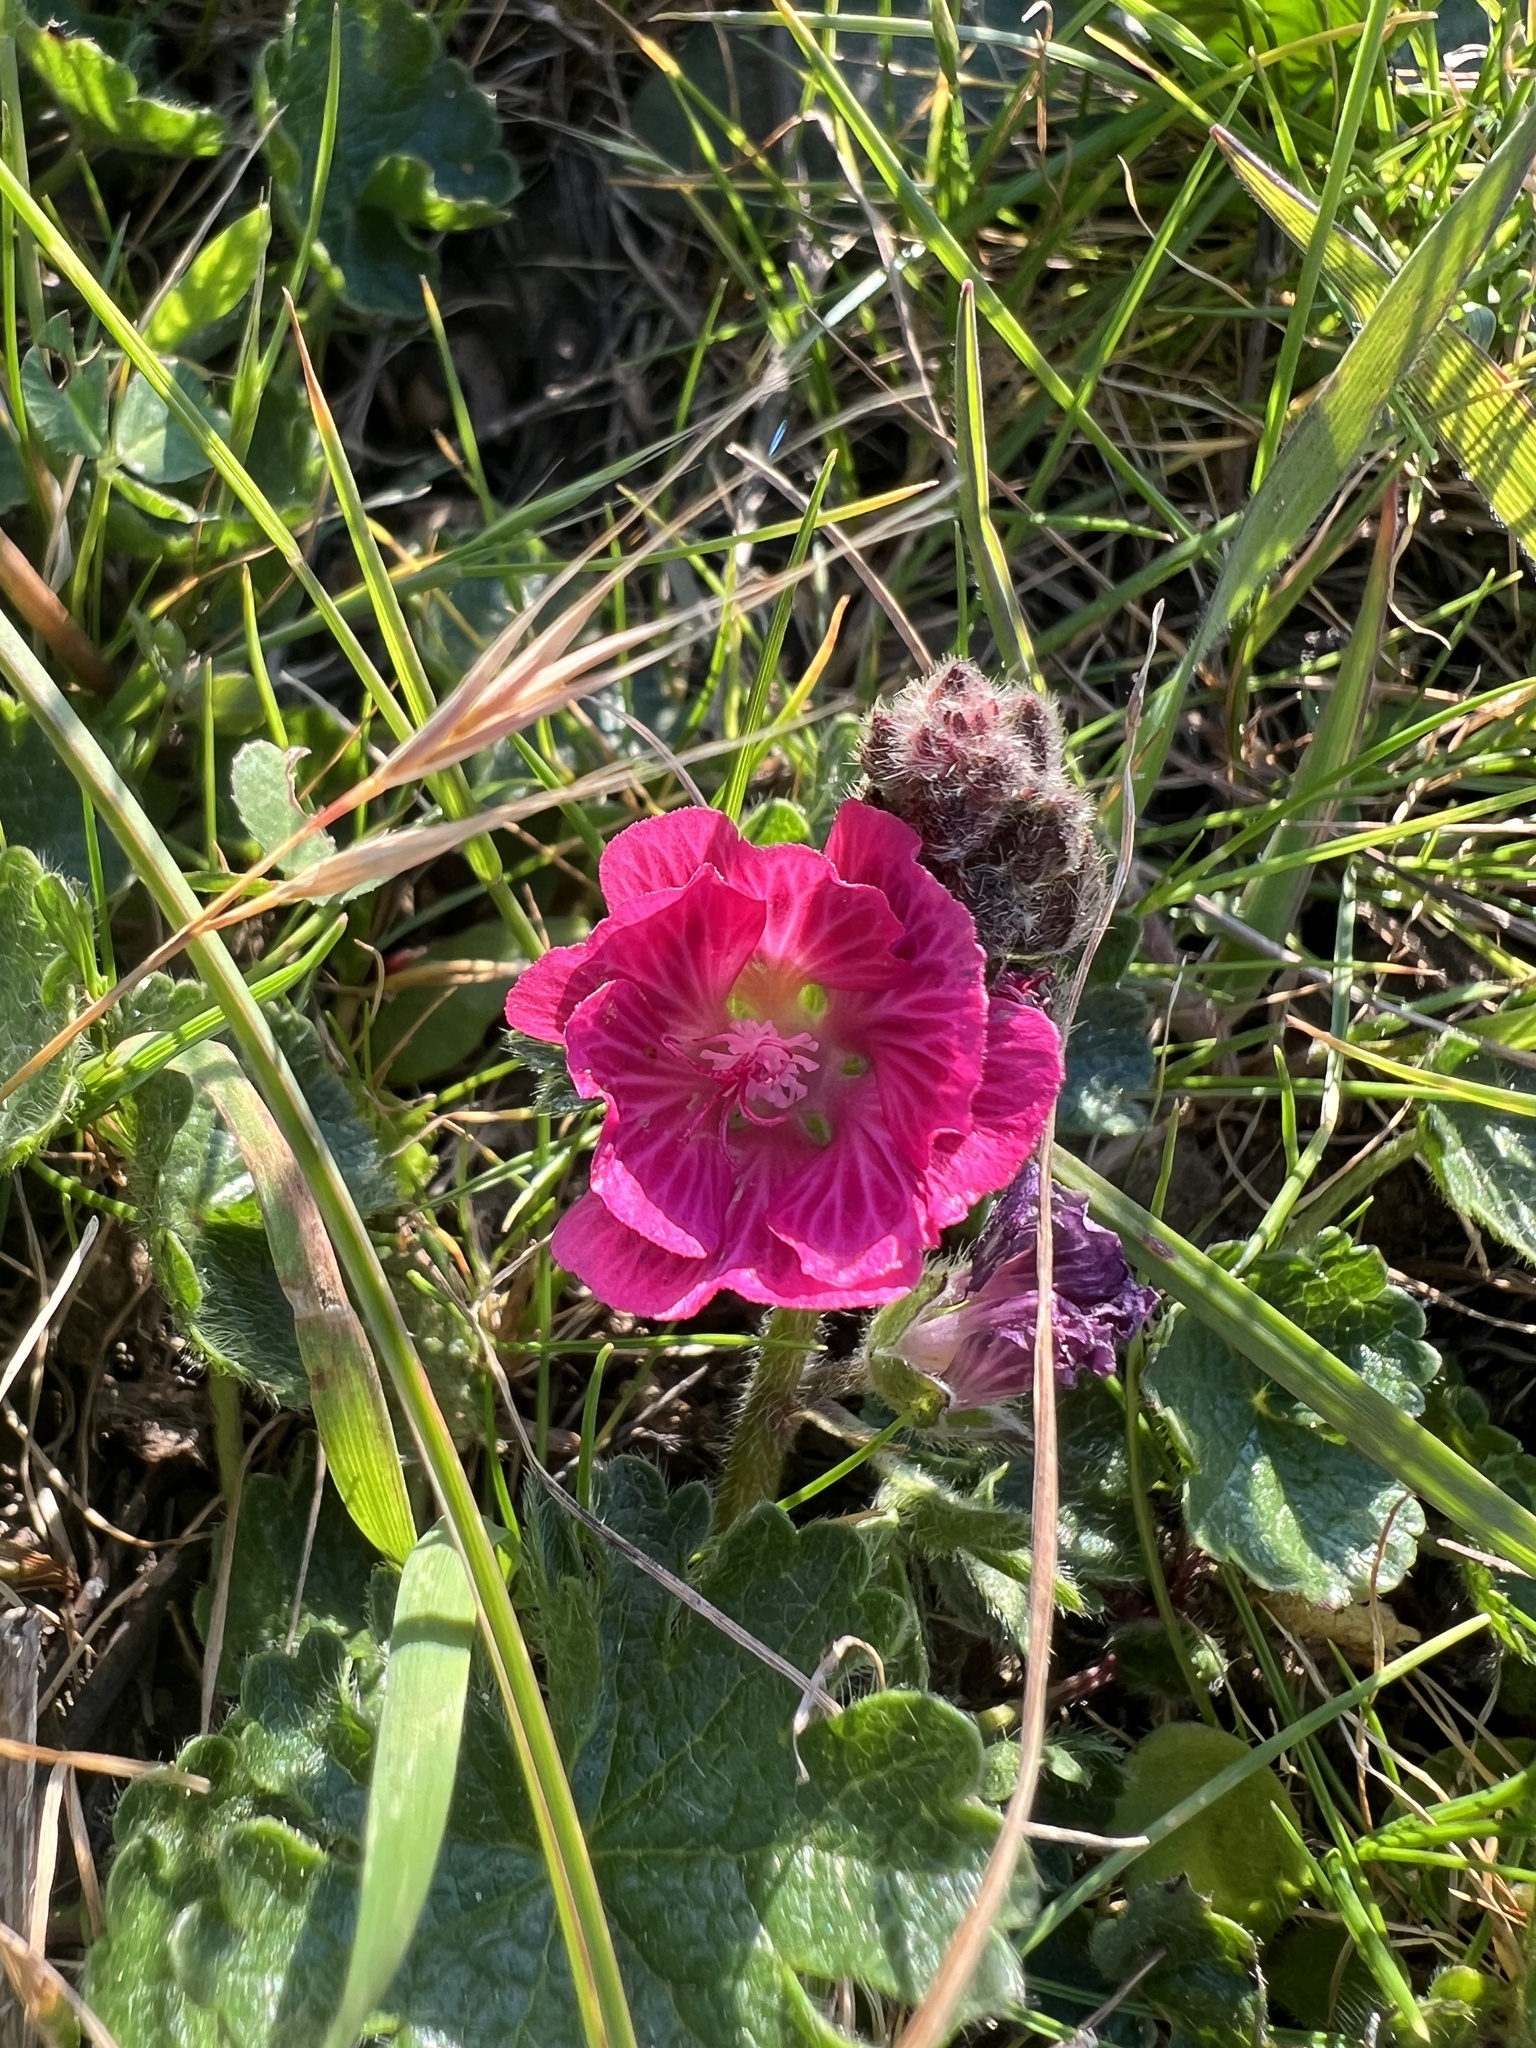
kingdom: Plantae
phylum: Tracheophyta
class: Magnoliopsida
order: Malvales
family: Malvaceae
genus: Sidalcea
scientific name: Sidalcea malviflora
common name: Greek mallow
